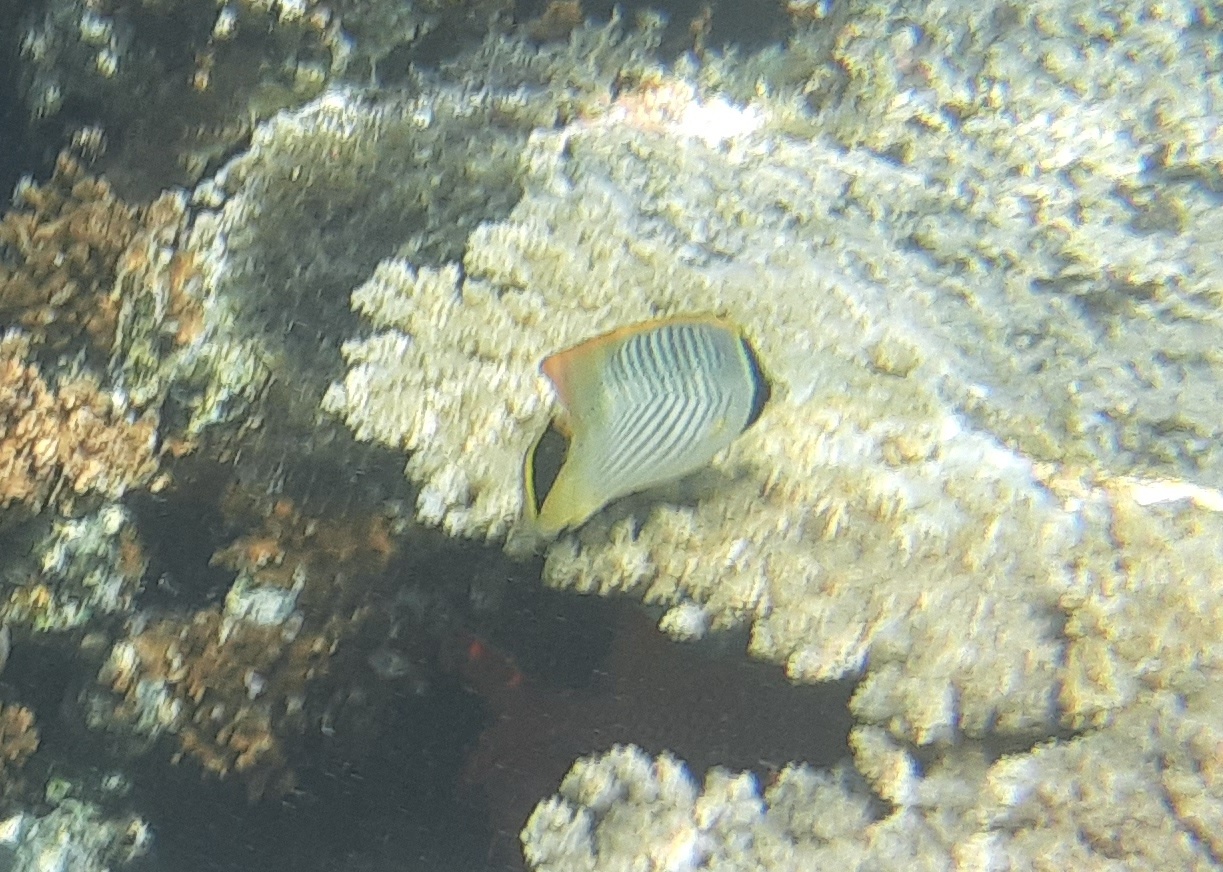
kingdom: Animalia
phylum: Chordata
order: Perciformes
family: Chaetodontidae
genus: Chaetodon
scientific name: Chaetodon trifascialis
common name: Chevroned butterflyfish
